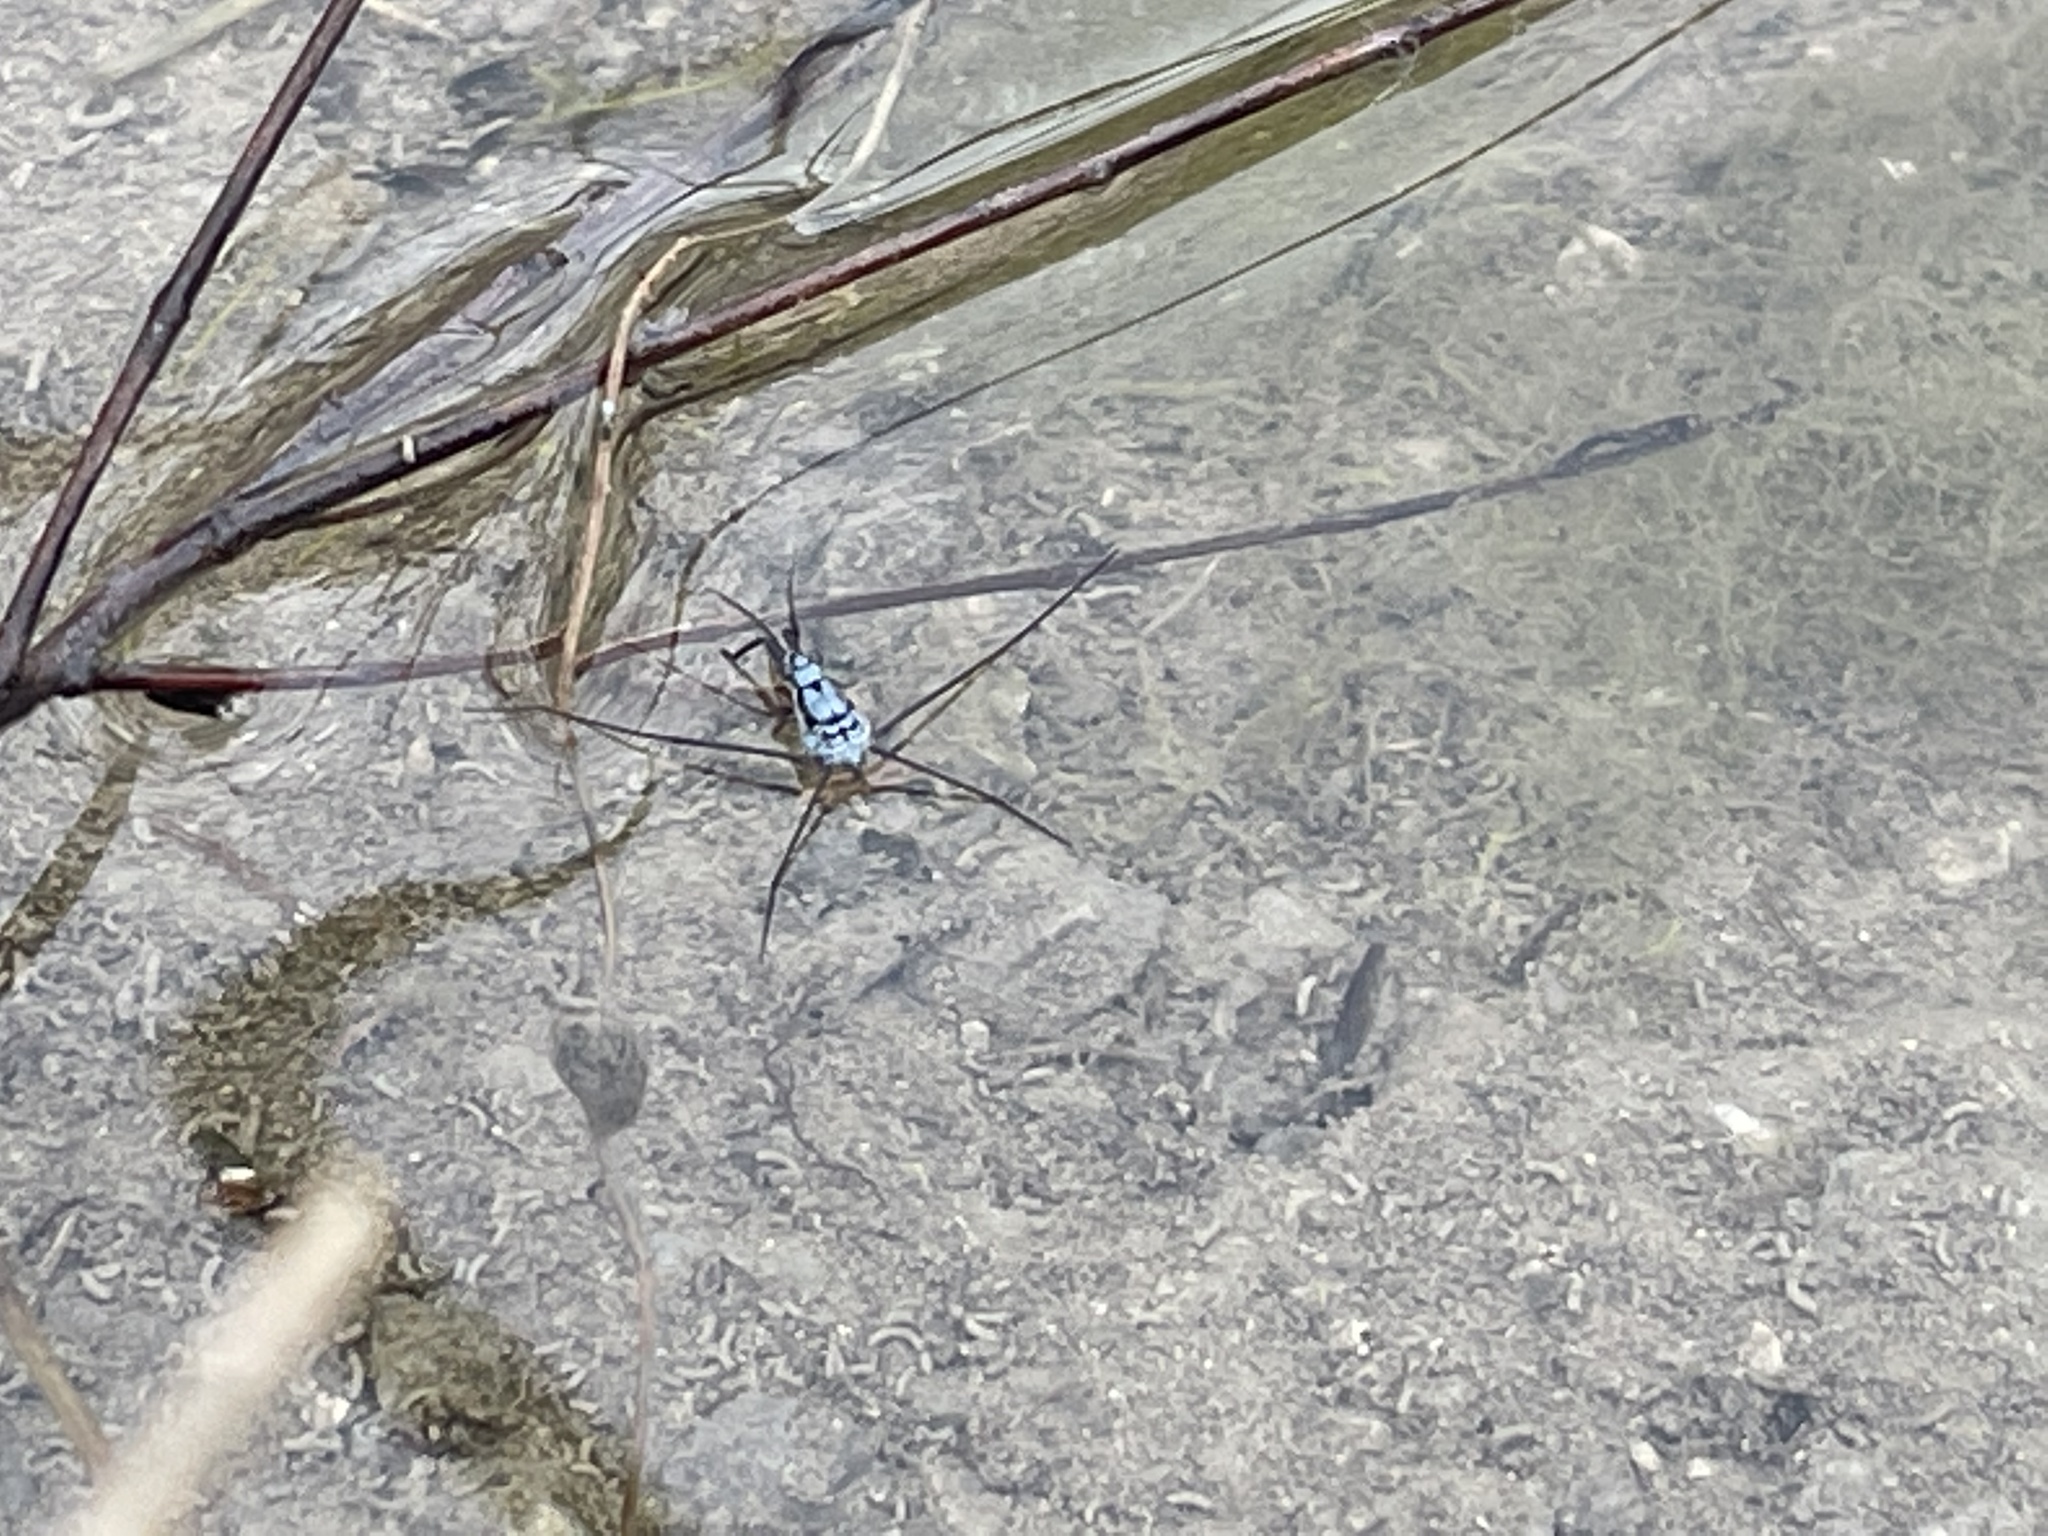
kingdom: Animalia
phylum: Arthropoda
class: Insecta
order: Hemiptera
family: Gerridae
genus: Neogerris
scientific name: Neogerris hesione
